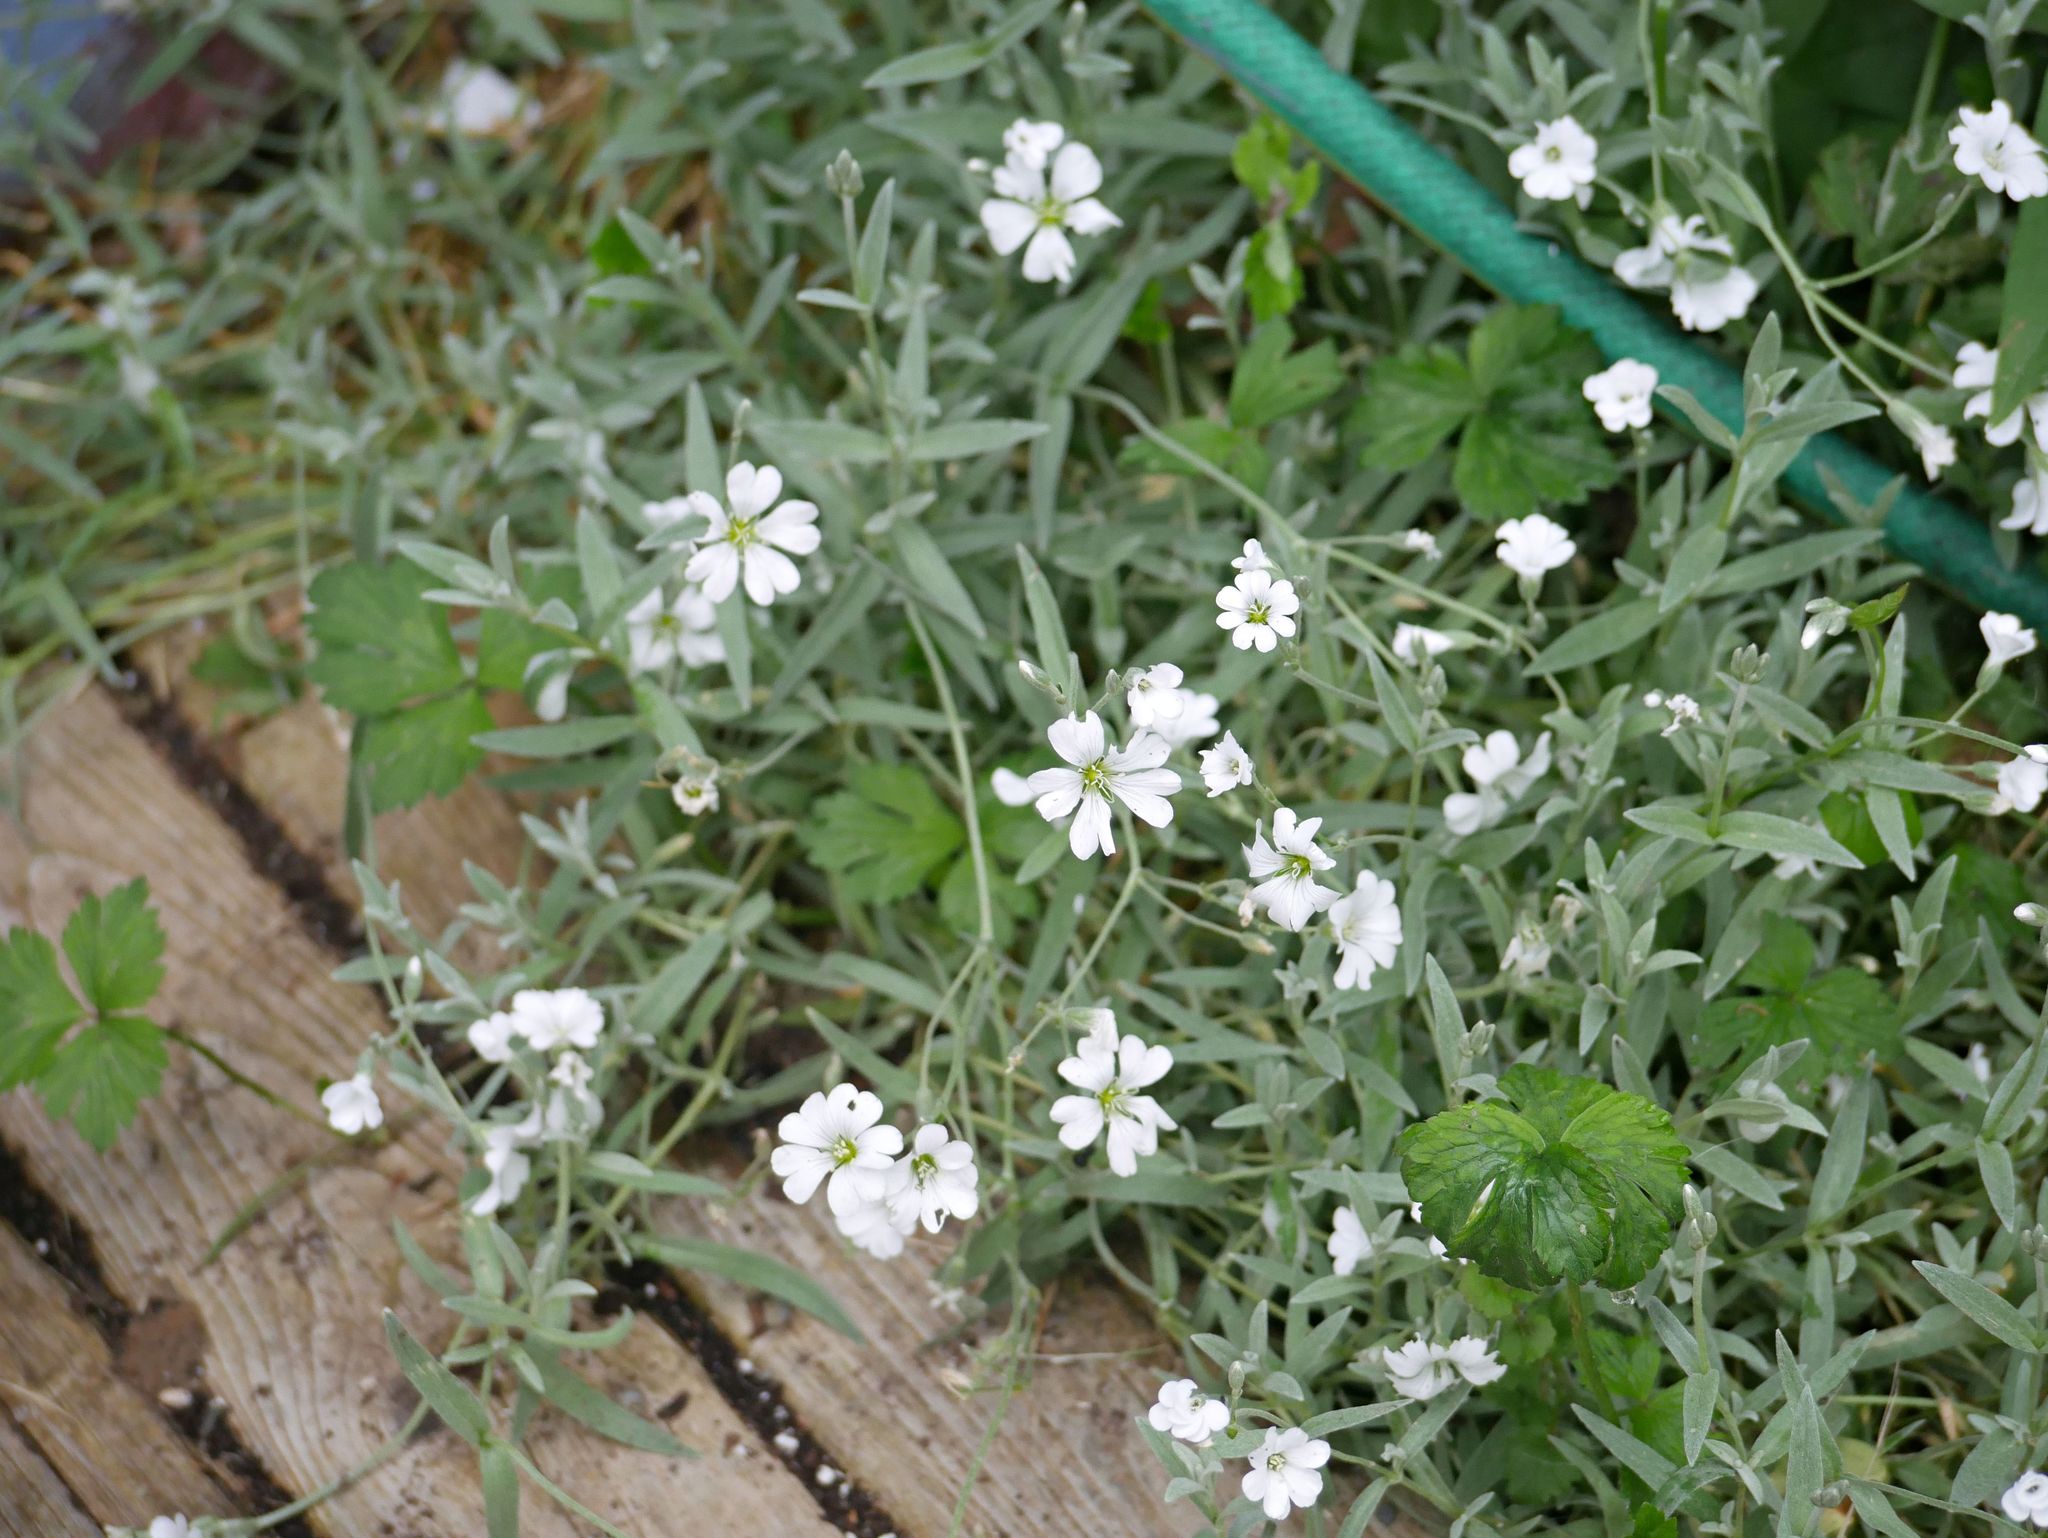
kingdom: Plantae
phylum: Tracheophyta
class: Magnoliopsida
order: Caryophyllales
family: Caryophyllaceae
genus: Cerastium
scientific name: Cerastium tomentosum
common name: Snow-in-summer
